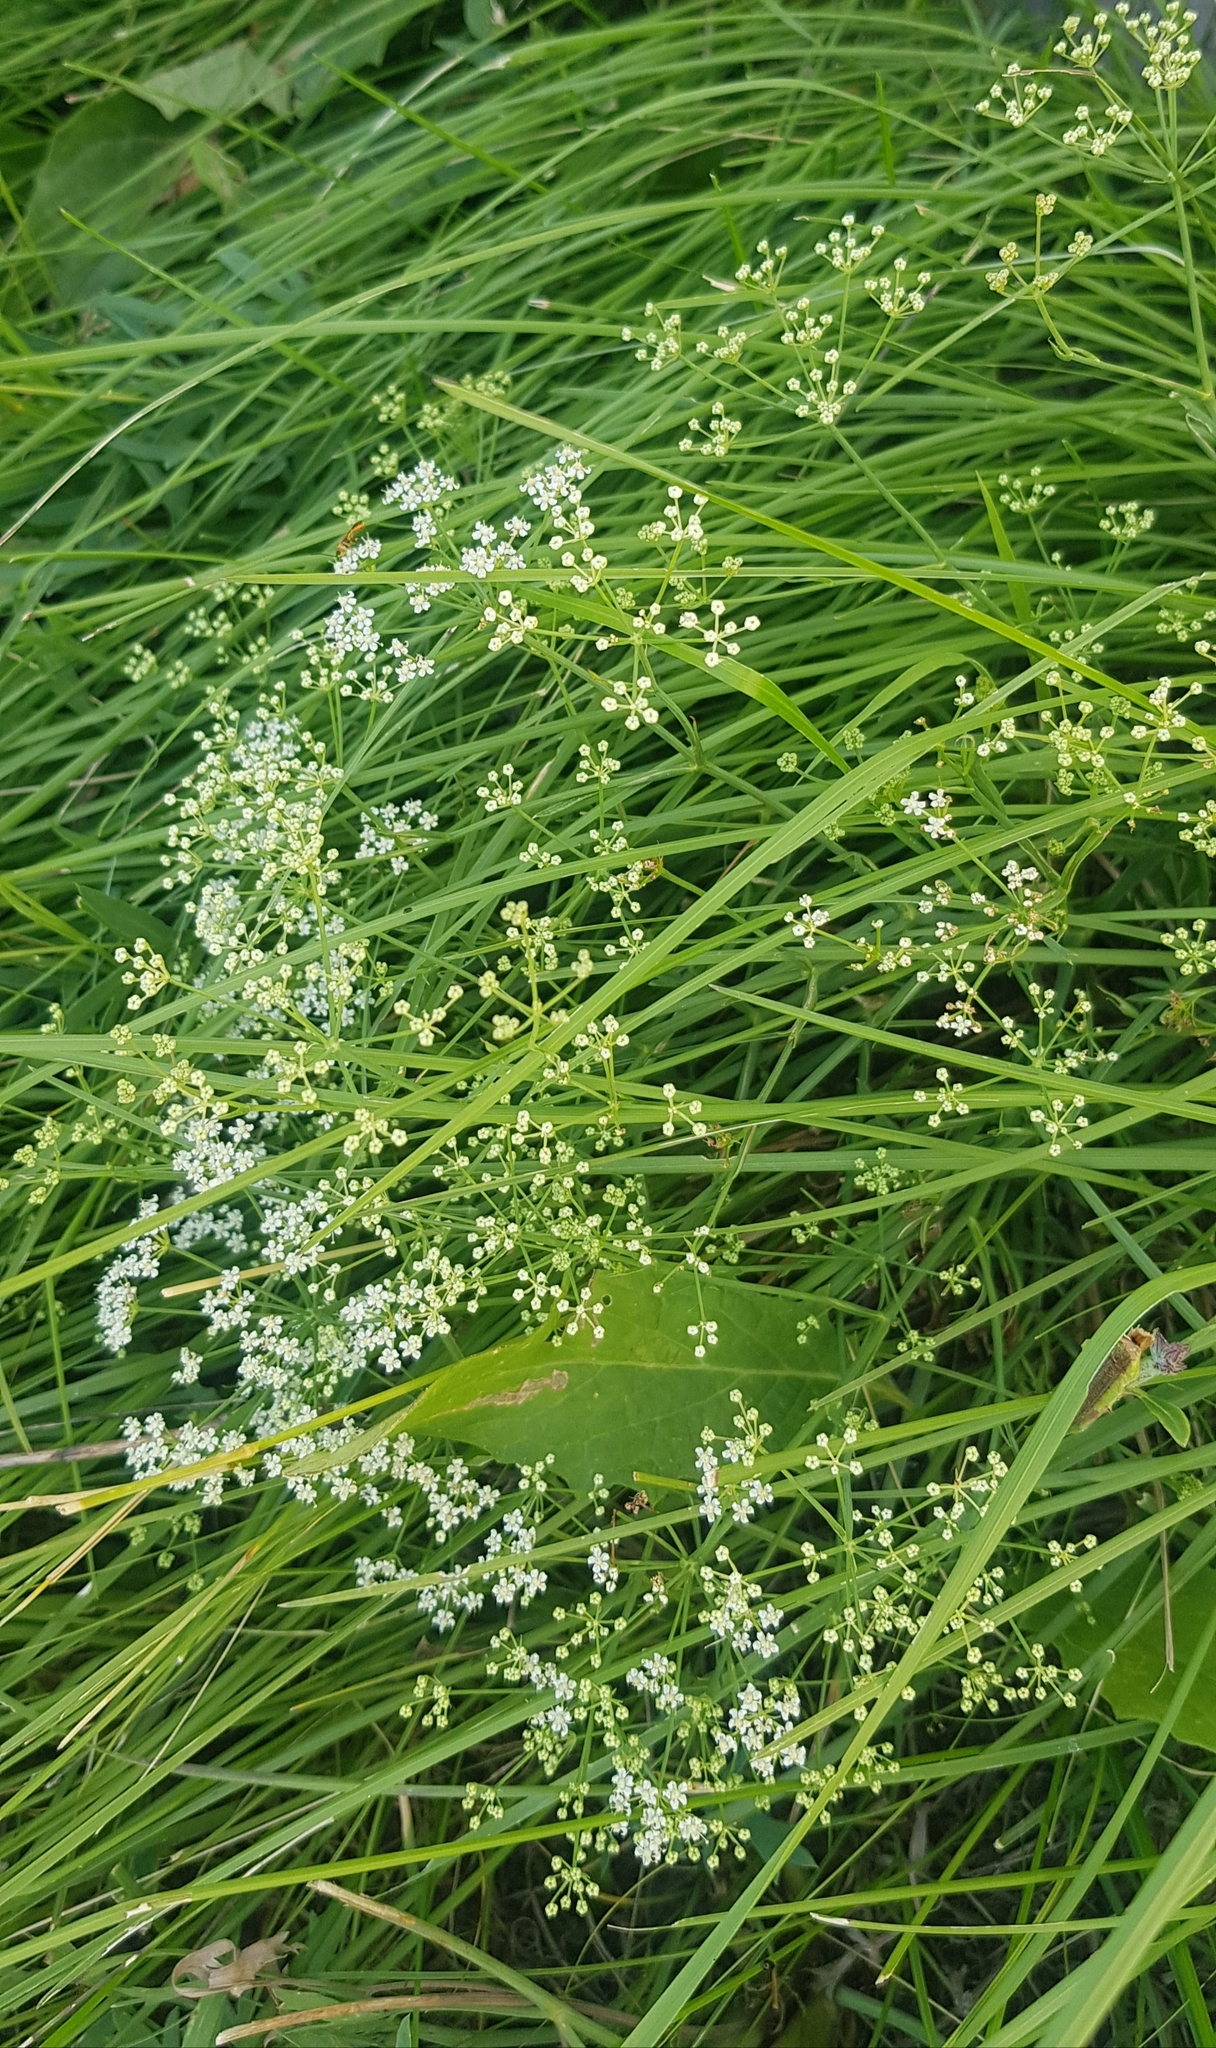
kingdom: Plantae
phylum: Tracheophyta
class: Magnoliopsida
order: Apiales
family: Apiaceae
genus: Saposhnikovia
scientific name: Saposhnikovia divaricata
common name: Siler
